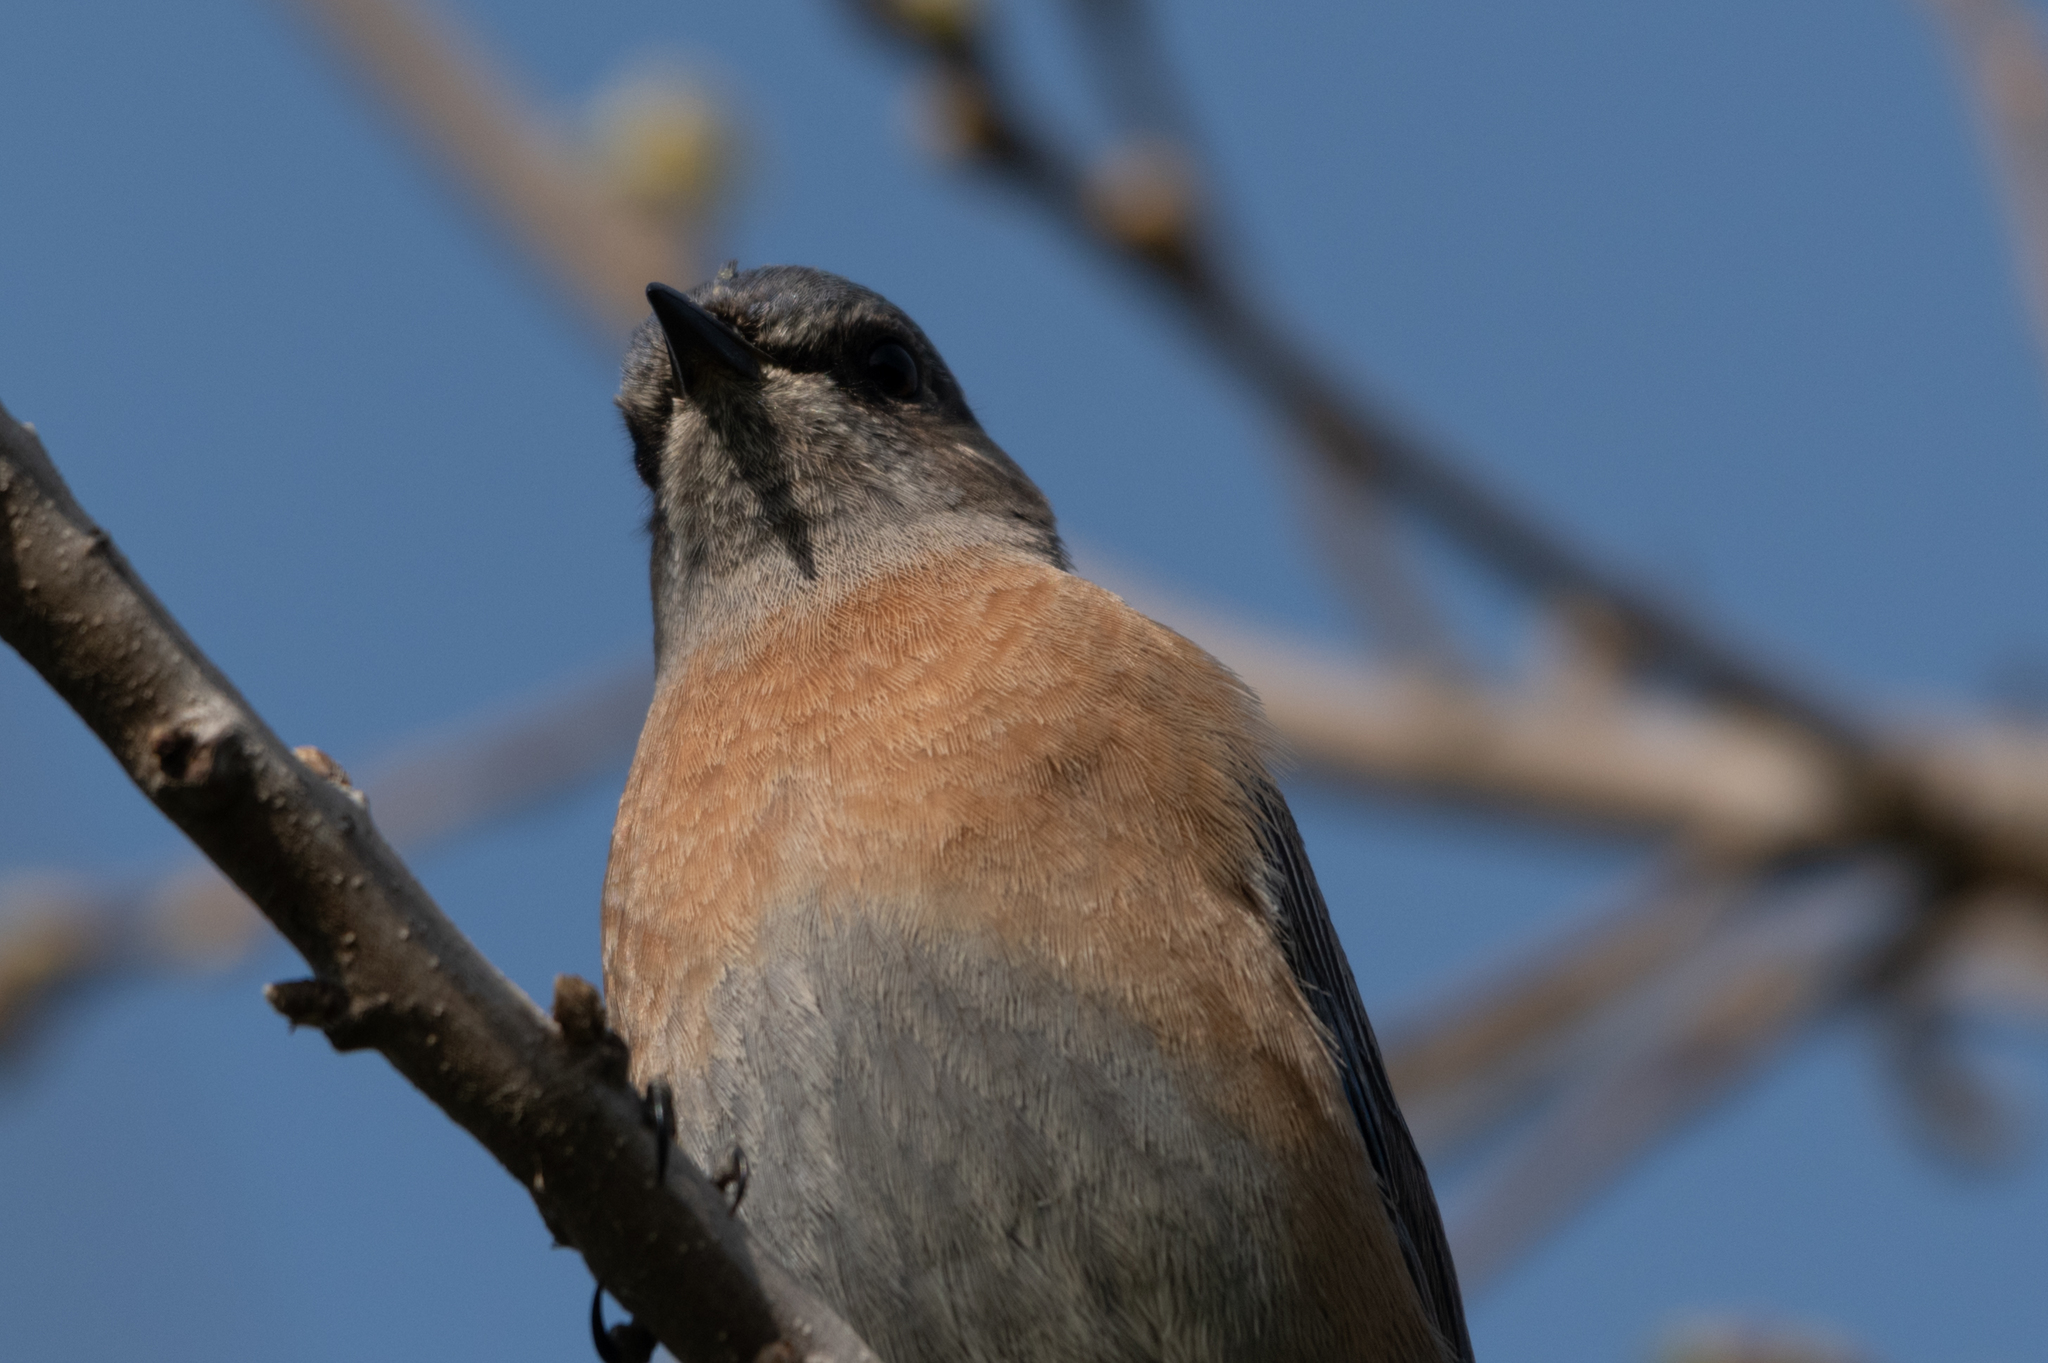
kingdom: Animalia
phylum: Chordata
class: Aves
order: Passeriformes
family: Turdidae
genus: Sialia
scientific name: Sialia mexicana
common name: Western bluebird
